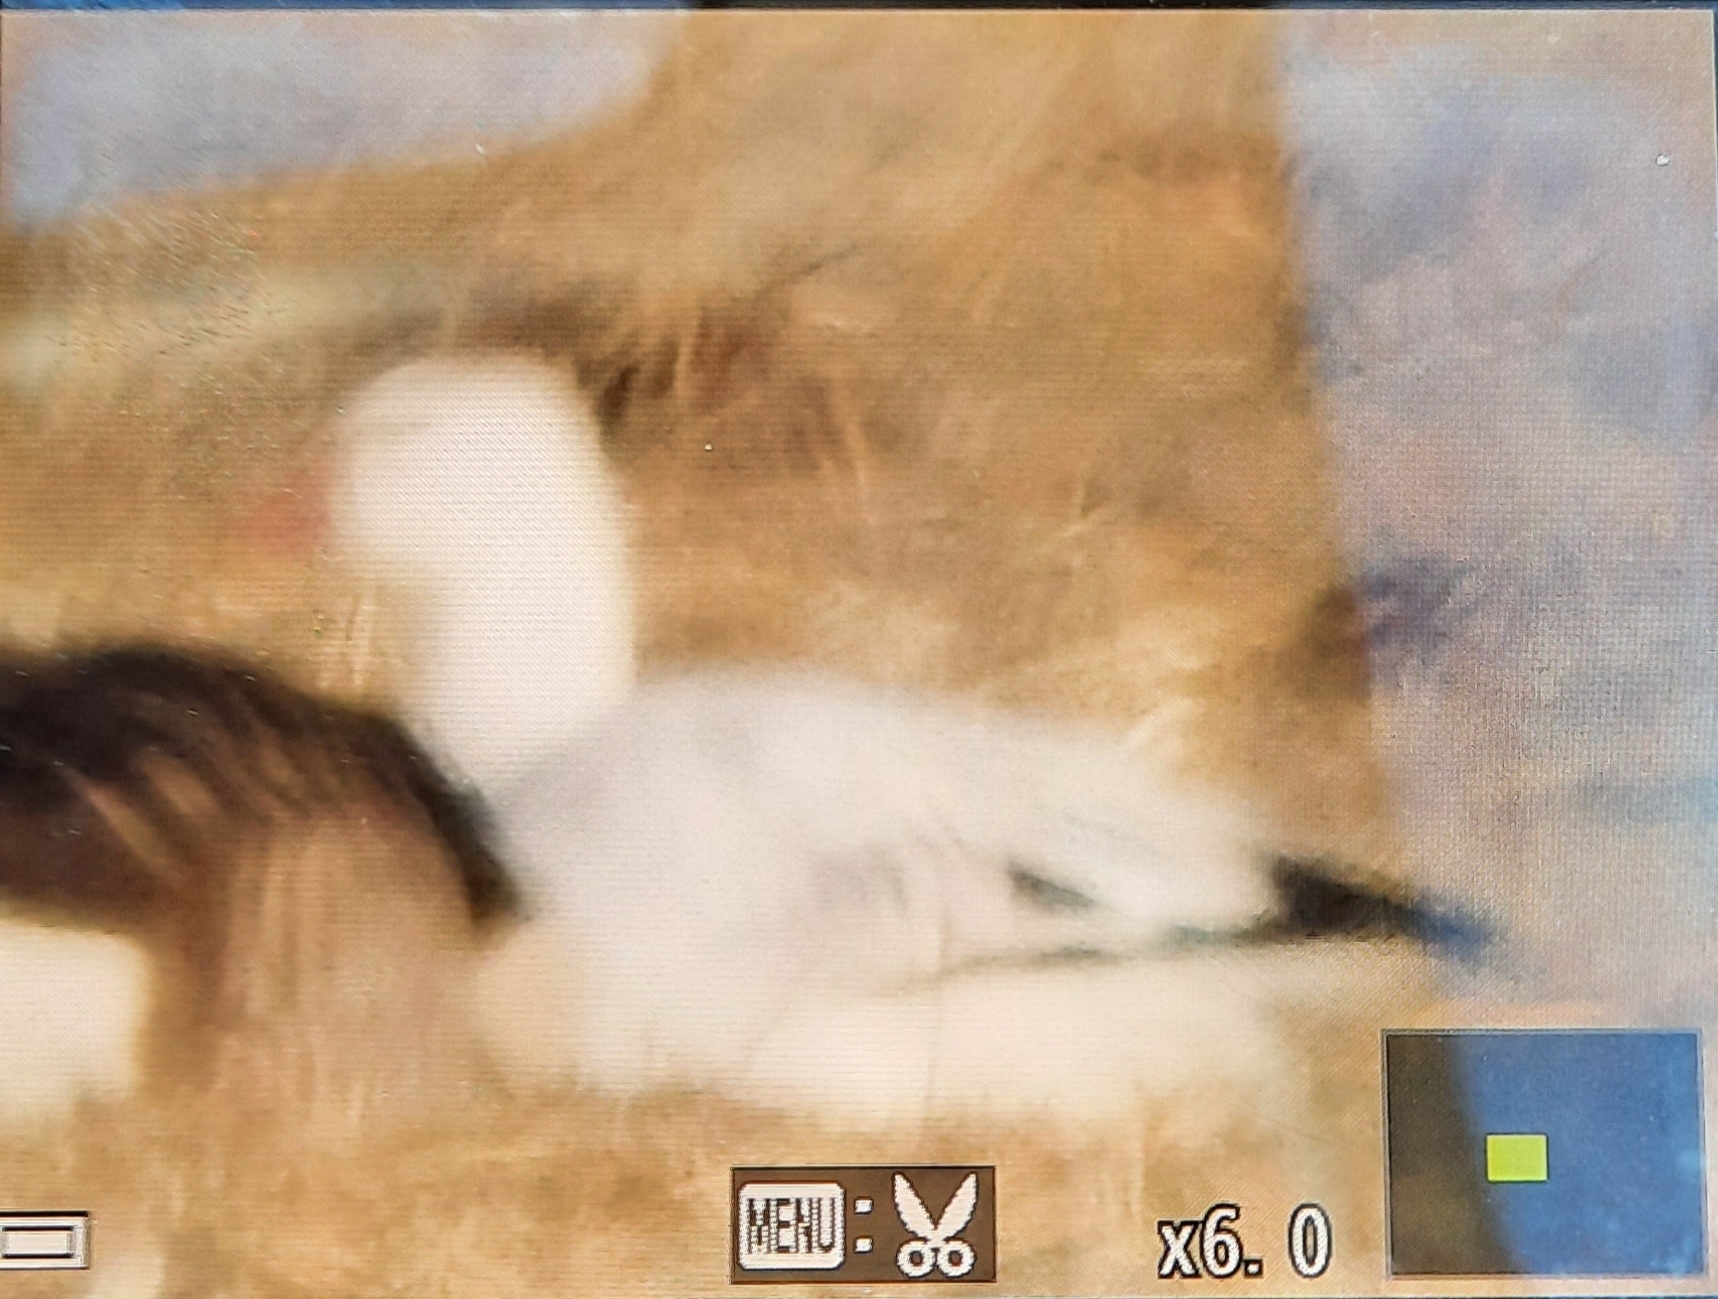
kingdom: Animalia
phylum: Chordata
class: Aves
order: Anseriformes
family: Anatidae
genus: Anser
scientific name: Anser rossii
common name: Ross's goose
